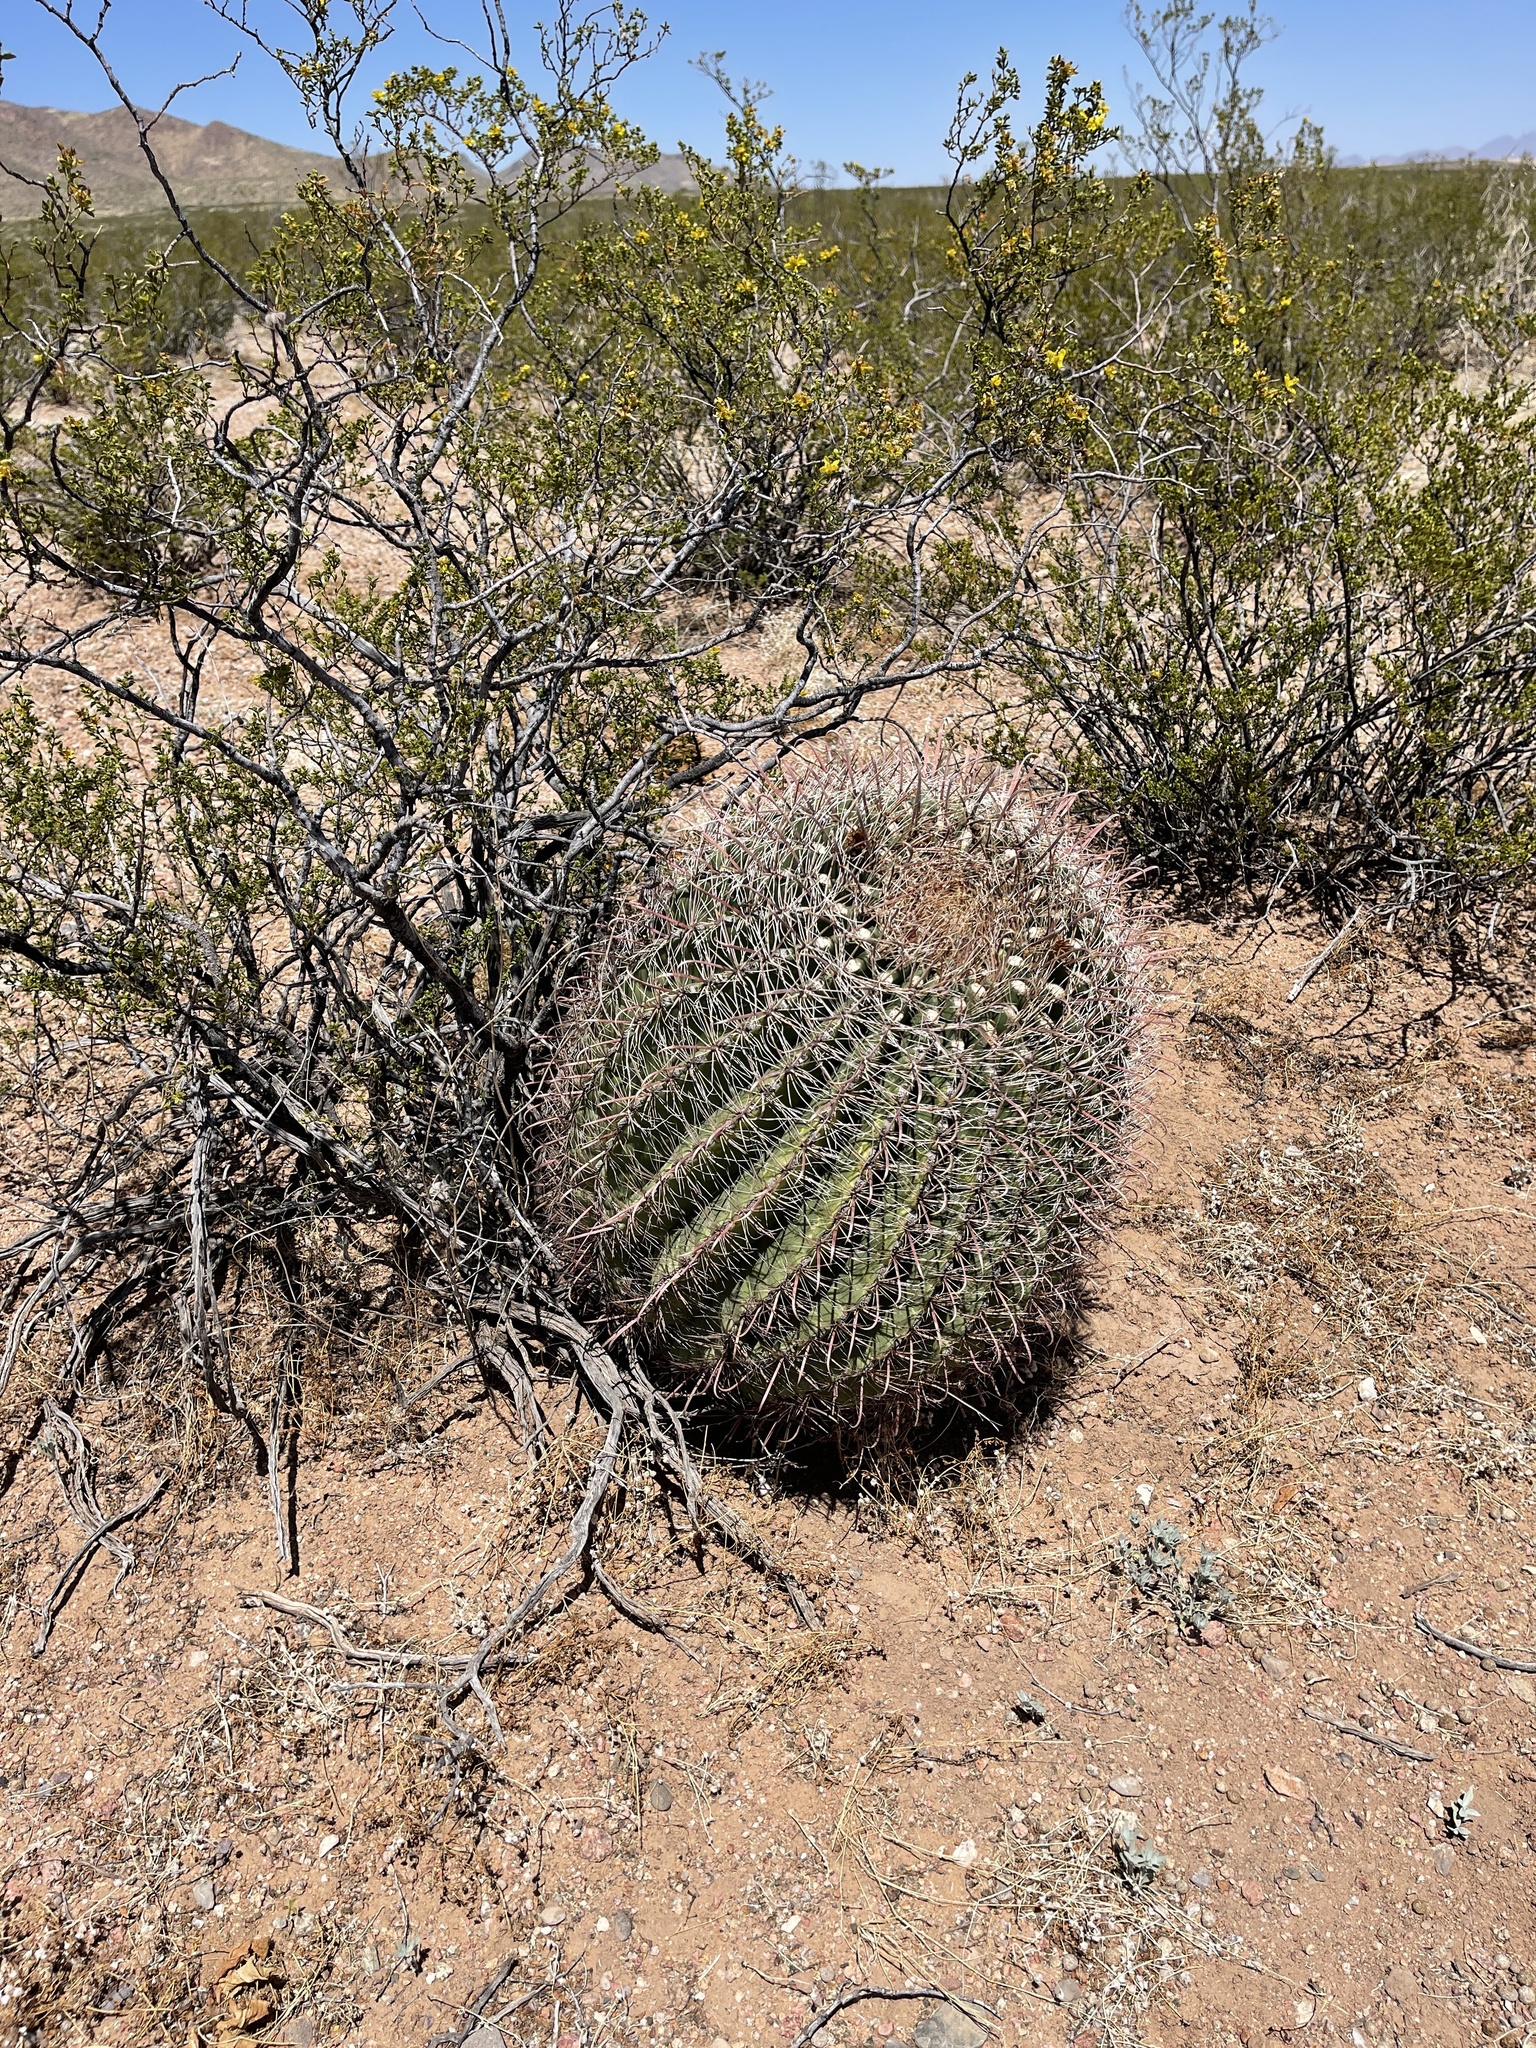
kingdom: Plantae
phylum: Tracheophyta
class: Magnoliopsida
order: Caryophyllales
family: Cactaceae
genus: Ferocactus
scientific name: Ferocactus wislizeni
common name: Candy barrel cactus
